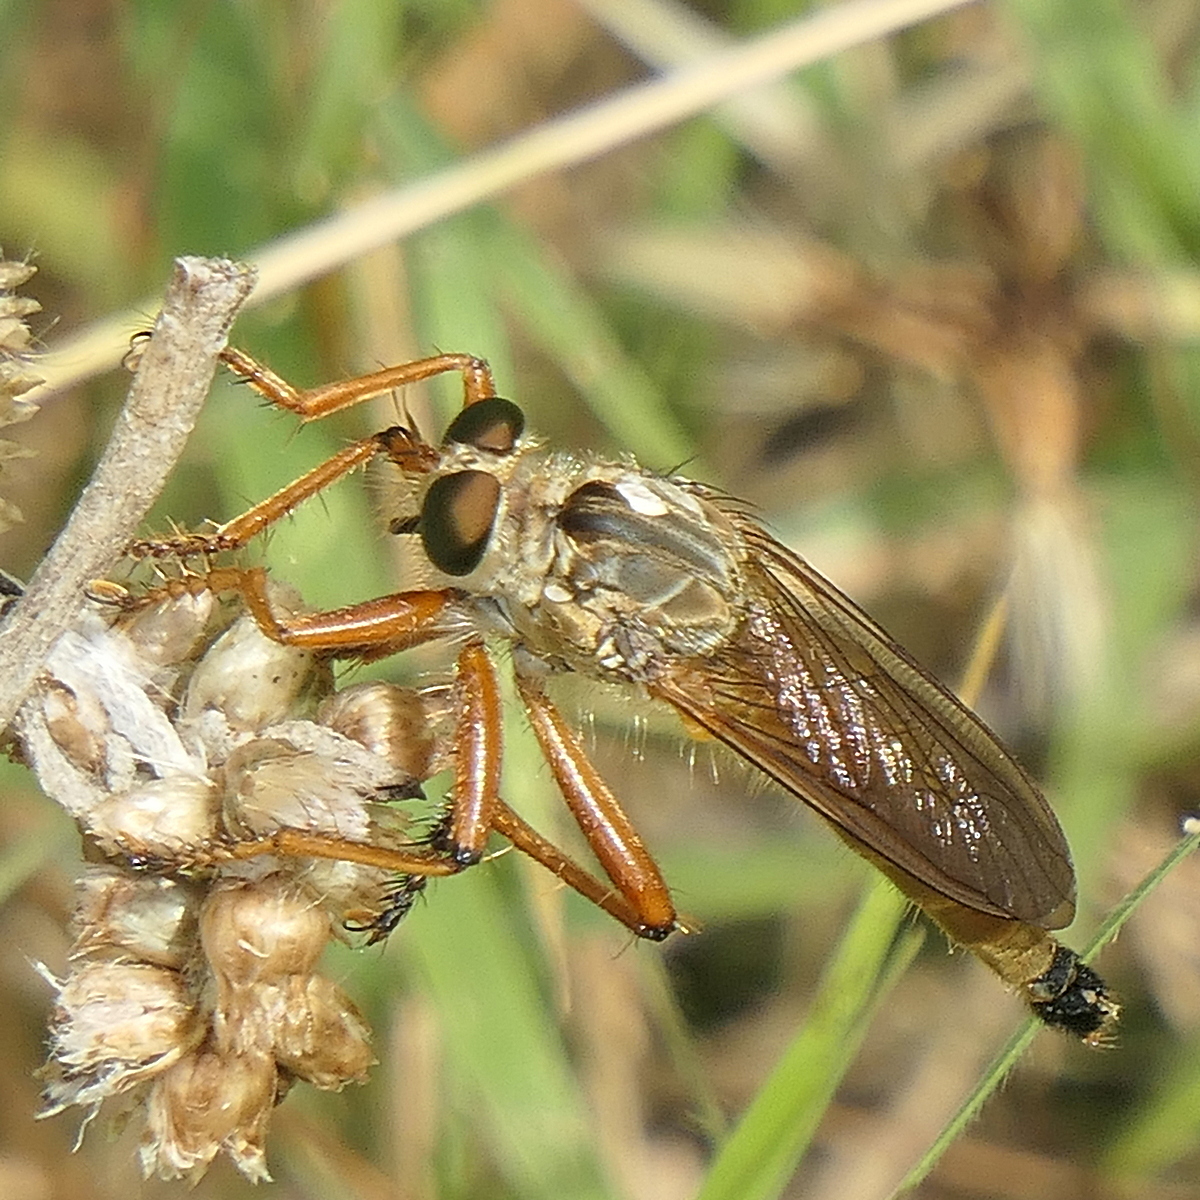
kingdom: Animalia
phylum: Arthropoda
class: Insecta
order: Diptera
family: Asilidae
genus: Zosteria
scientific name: Zosteria fulvipubescens
